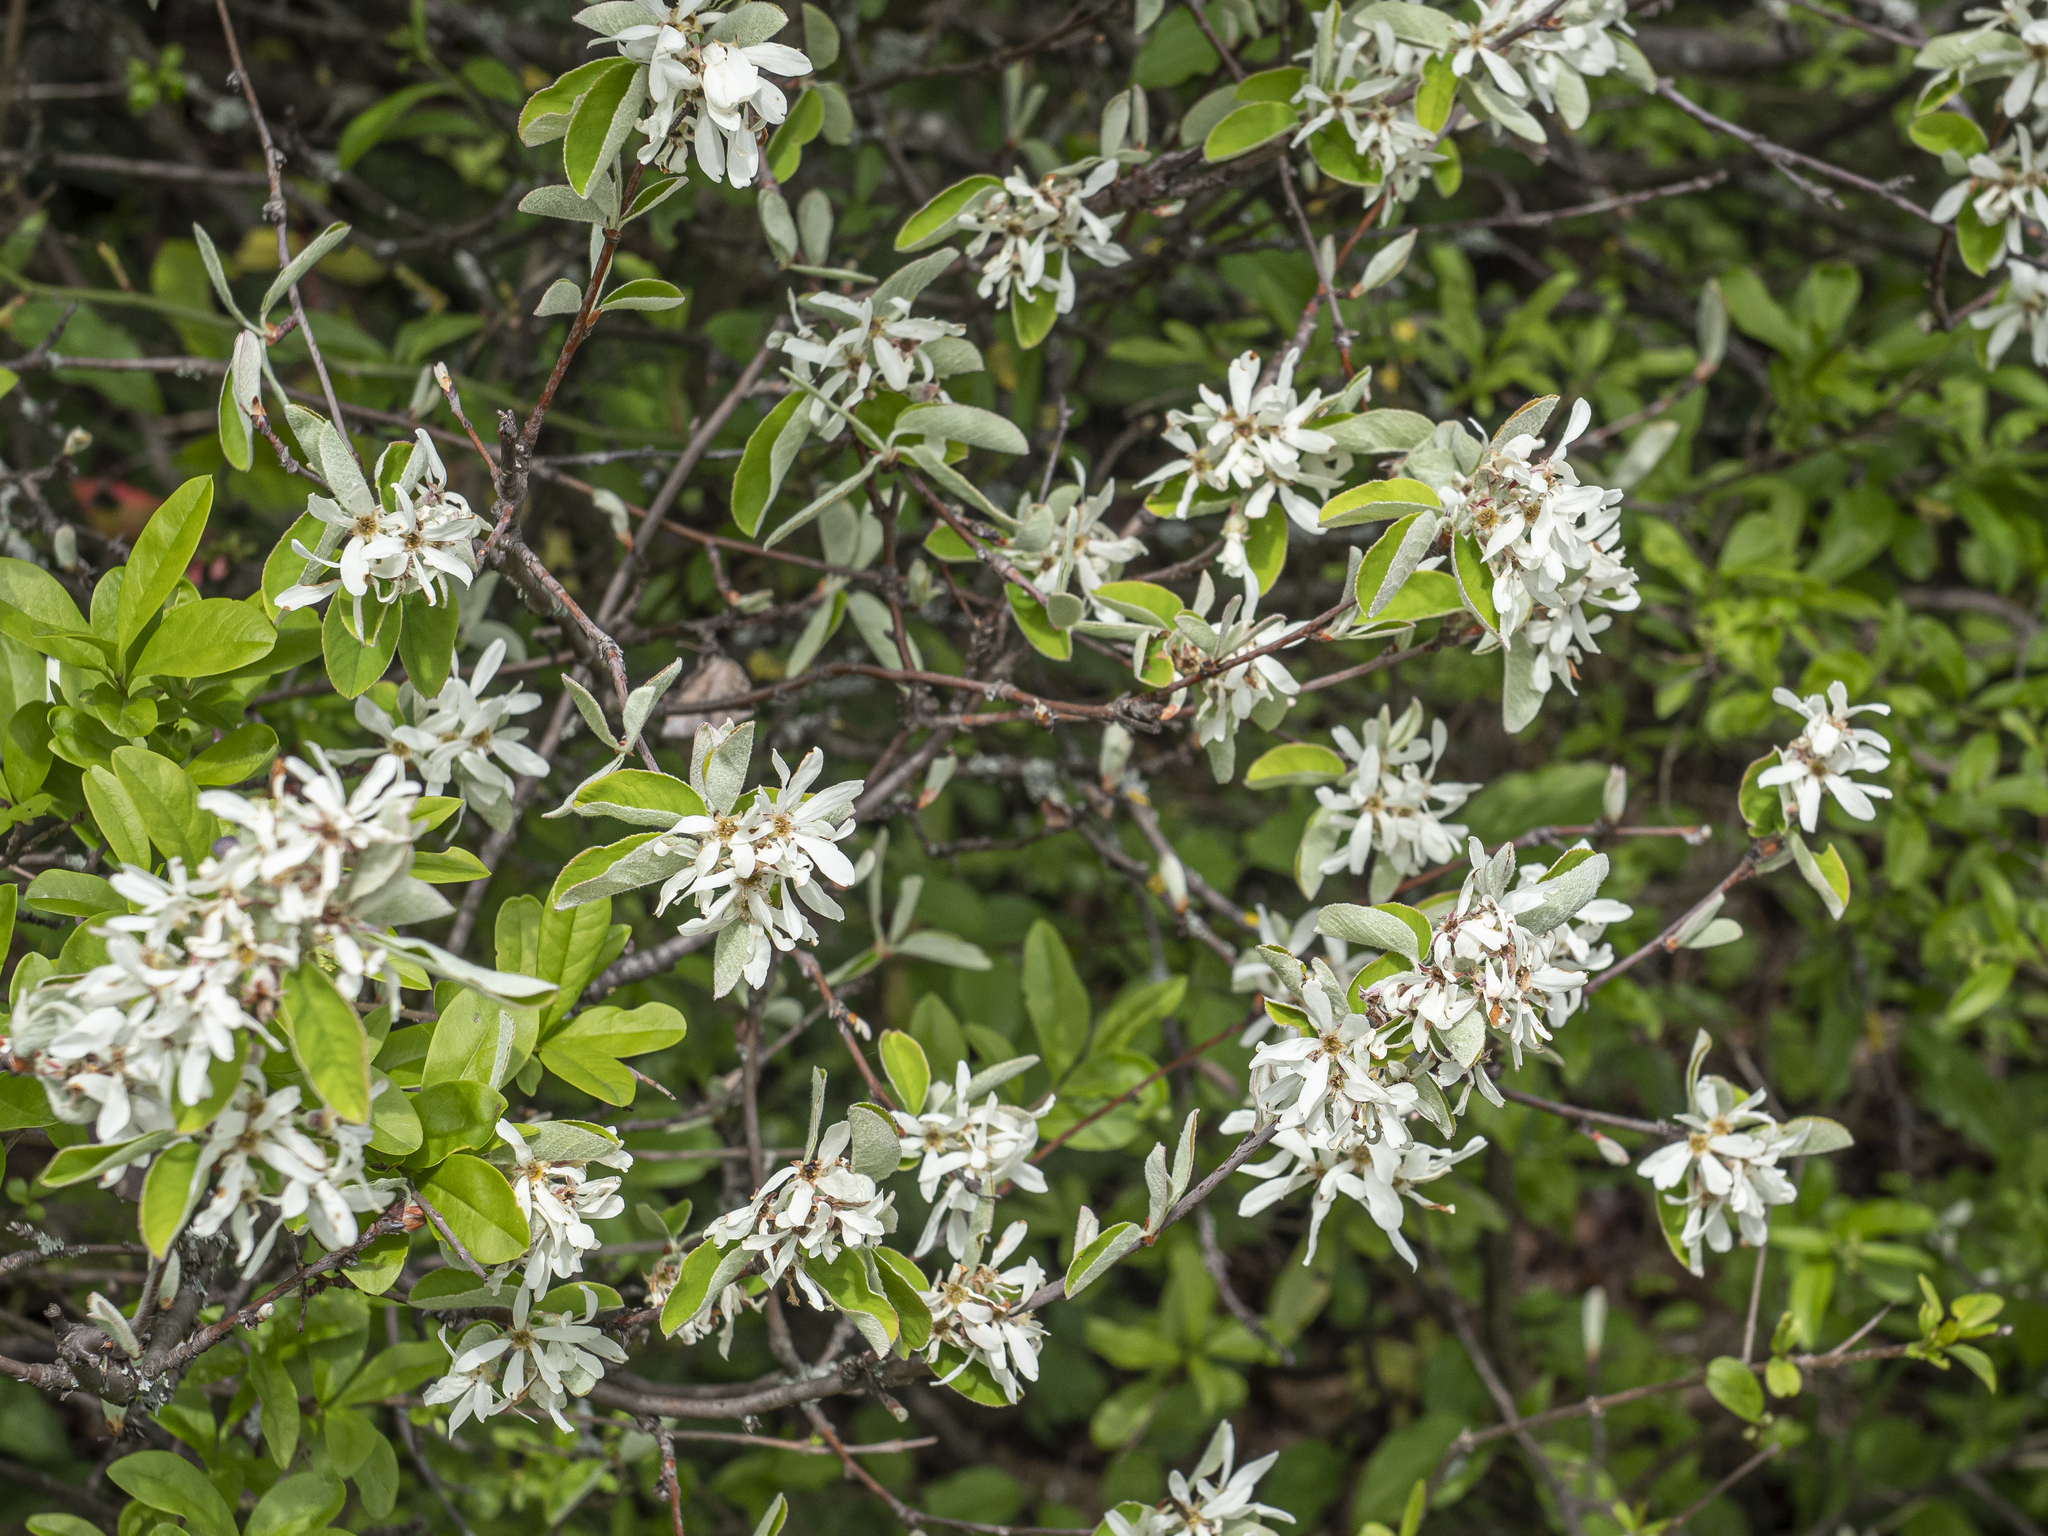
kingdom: Plantae
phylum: Tracheophyta
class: Magnoliopsida
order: Rosales
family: Rosaceae
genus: Amelanchier
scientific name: Amelanchier ovalis
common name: Serviceberry
